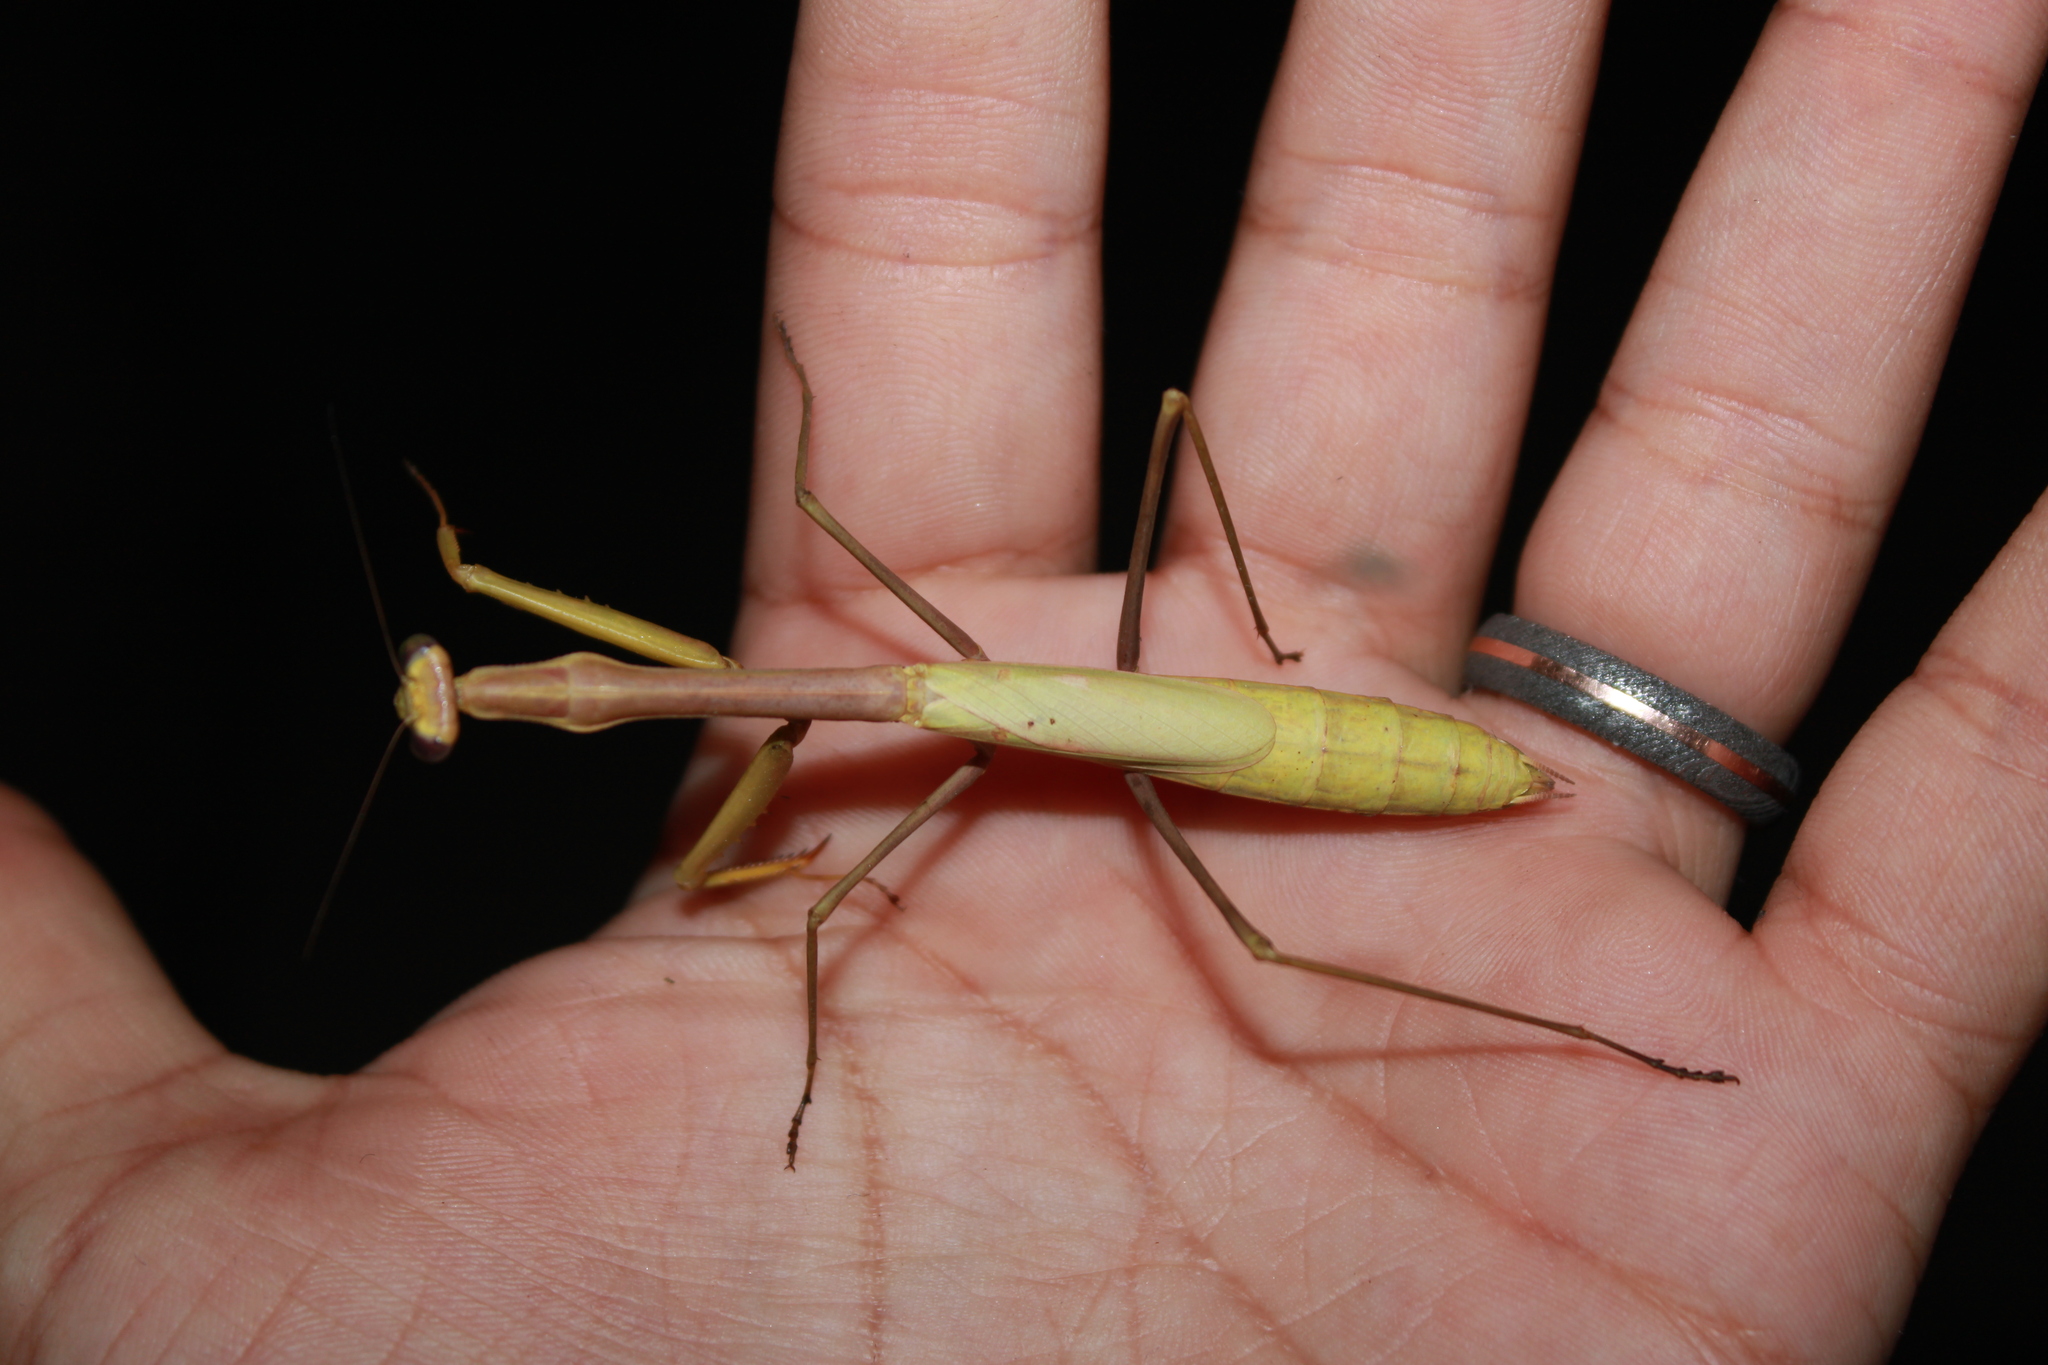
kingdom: Animalia
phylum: Arthropoda
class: Insecta
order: Mantodea
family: Mantidae
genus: Stagmomantis
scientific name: Stagmomantis floridensis
